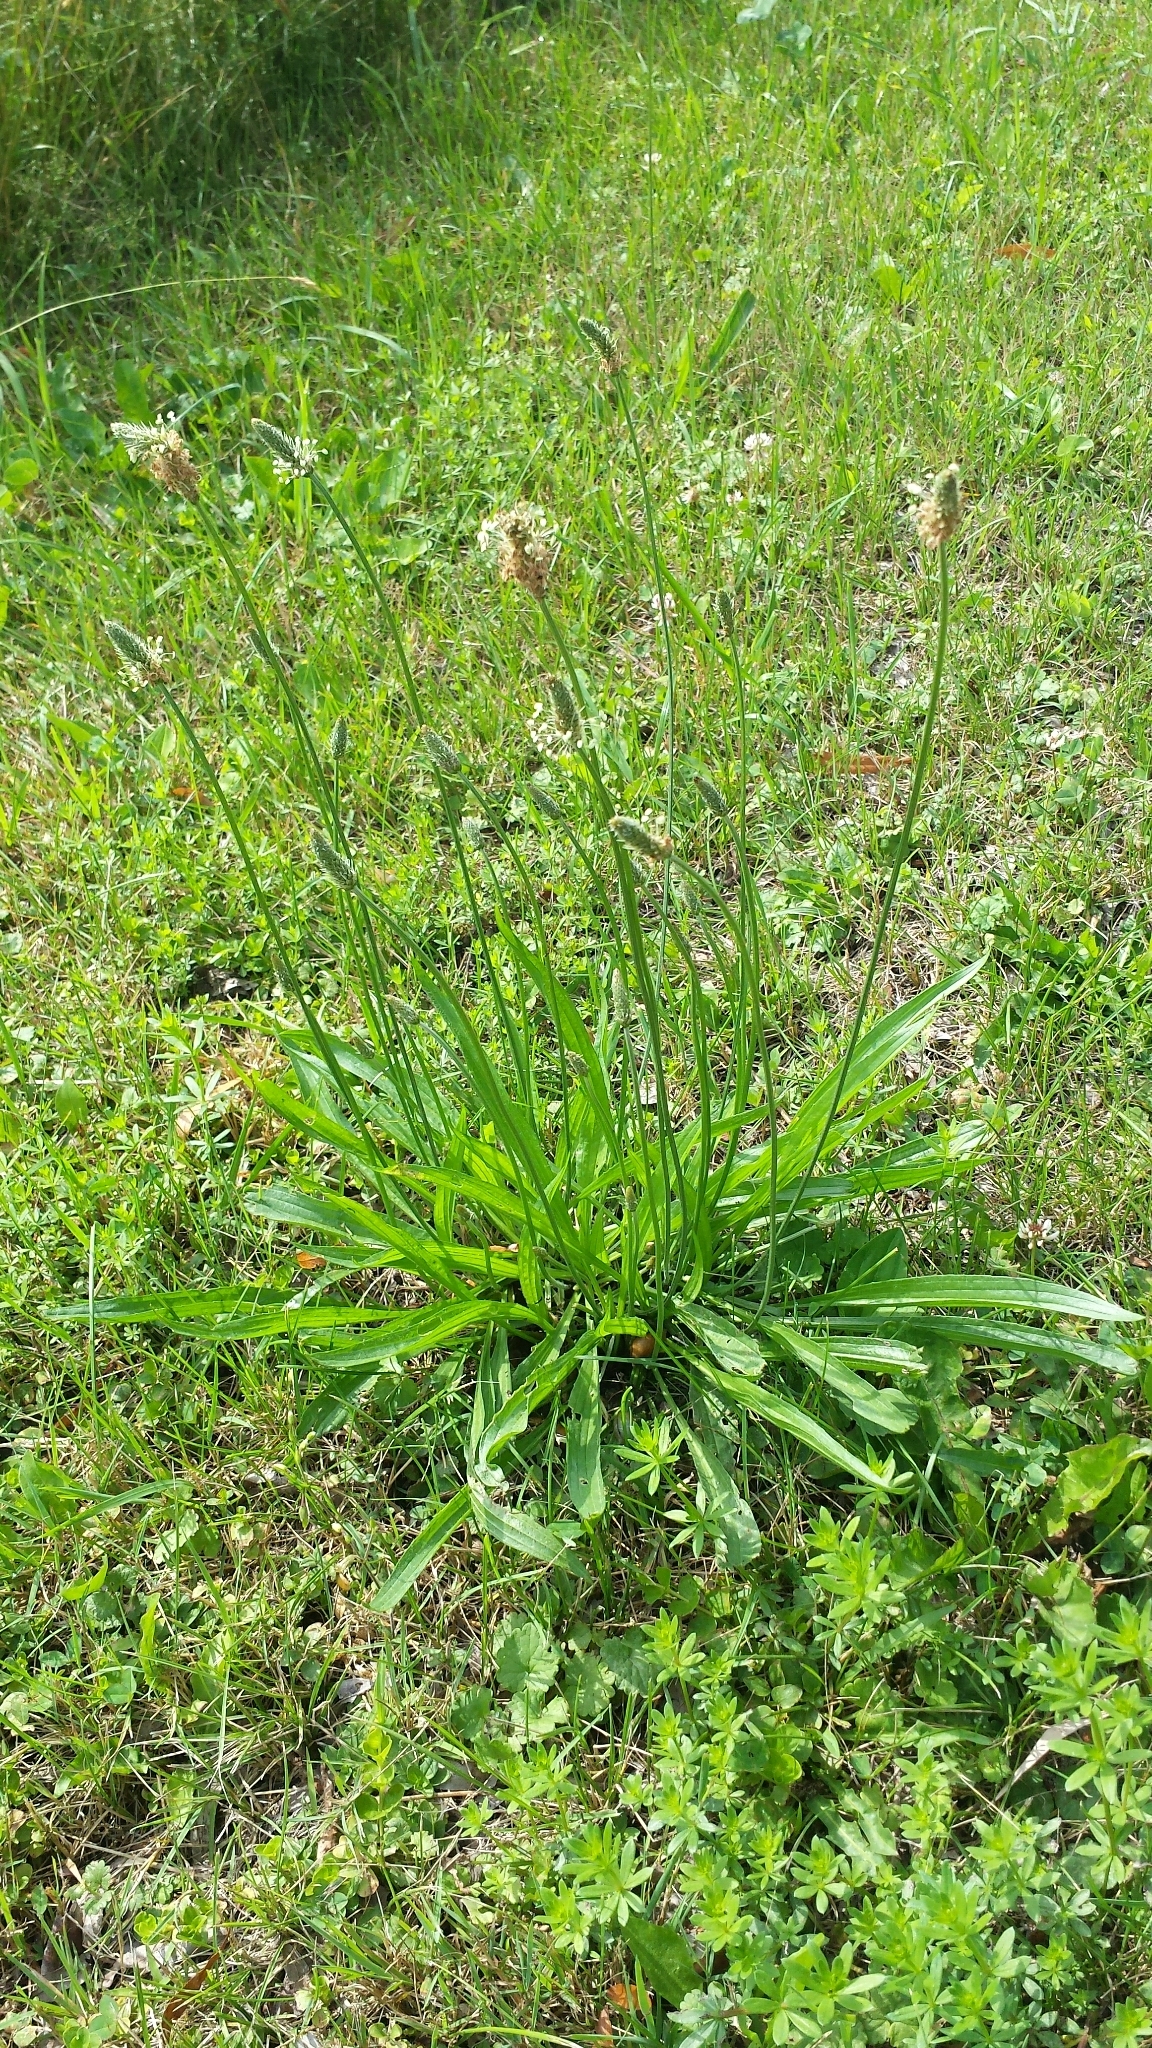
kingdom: Plantae
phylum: Tracheophyta
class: Magnoliopsida
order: Lamiales
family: Plantaginaceae
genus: Plantago
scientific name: Plantago lanceolata
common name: Ribwort plantain
